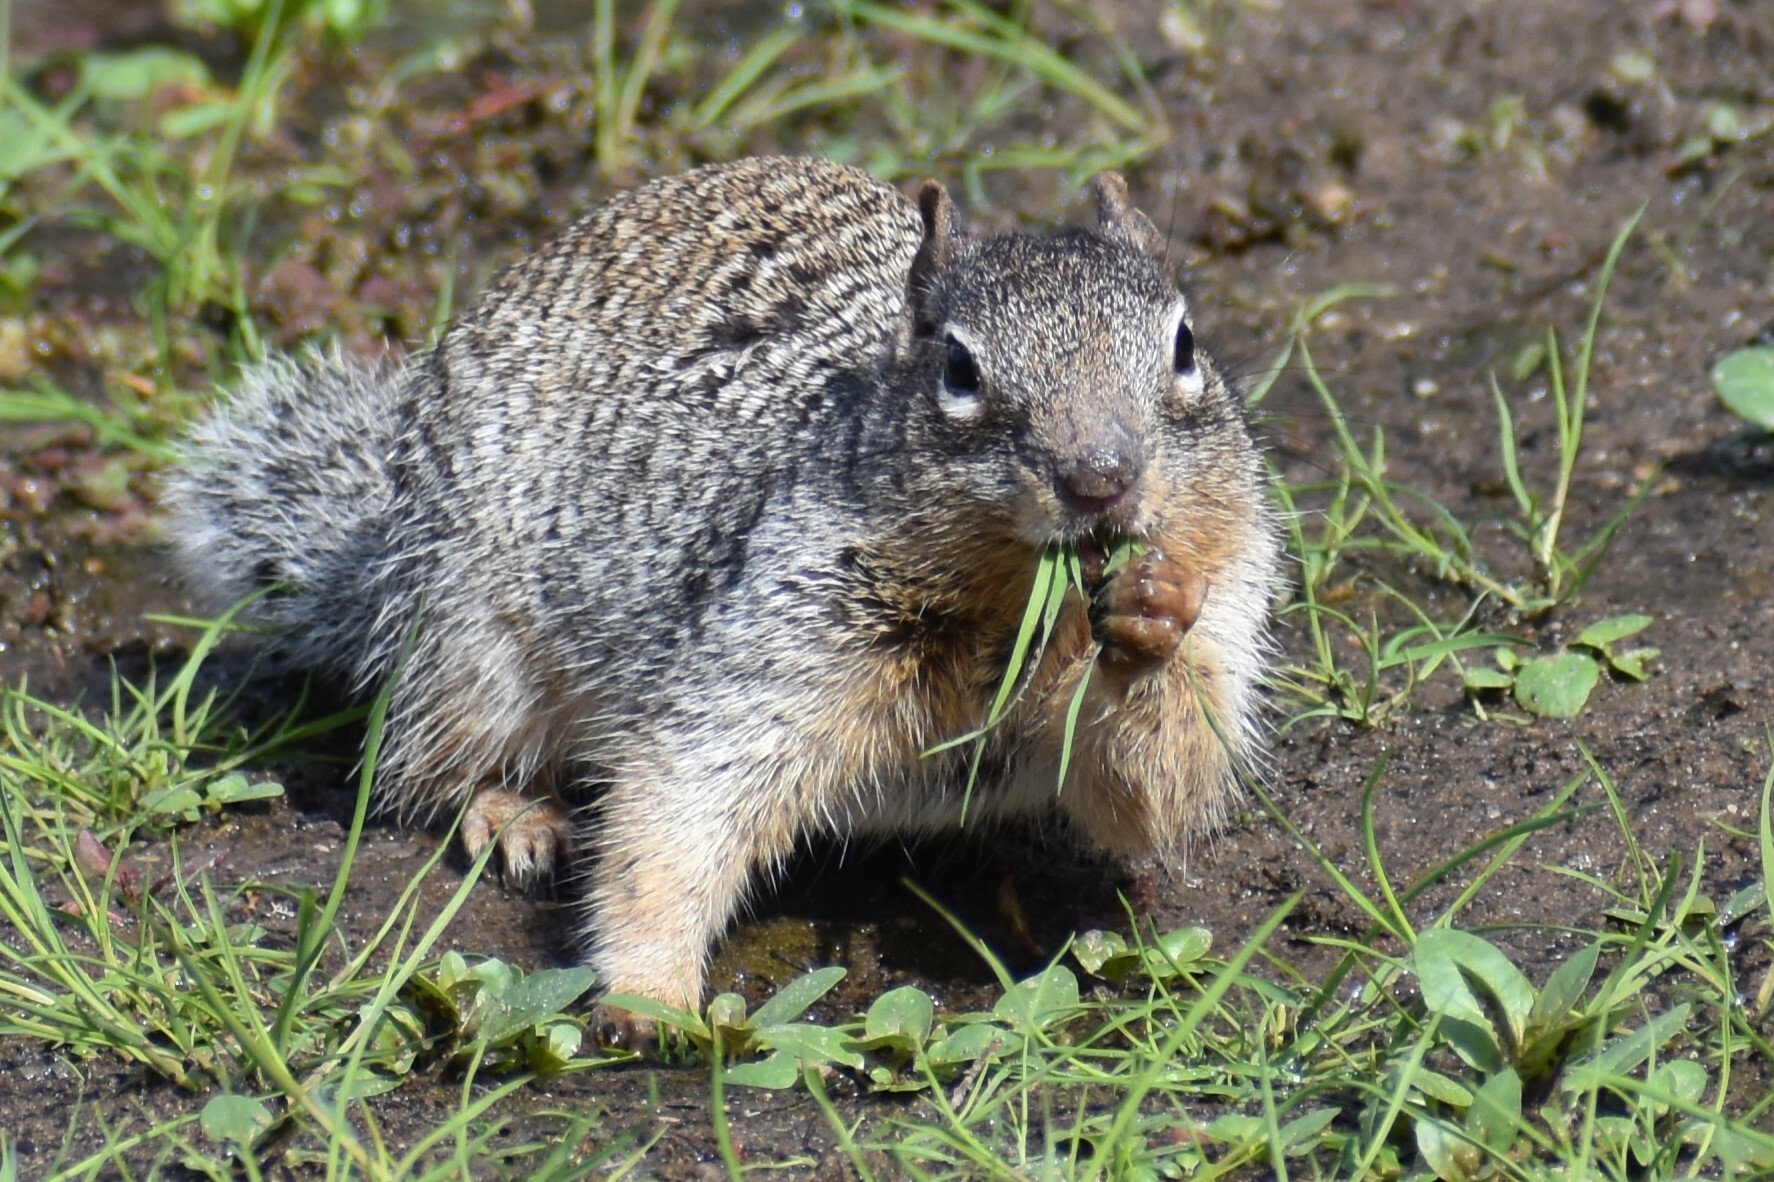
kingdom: Animalia
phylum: Chordata
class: Mammalia
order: Rodentia
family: Sciuridae
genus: Otospermophilus
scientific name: Otospermophilus variegatus
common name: Rock squirrel
